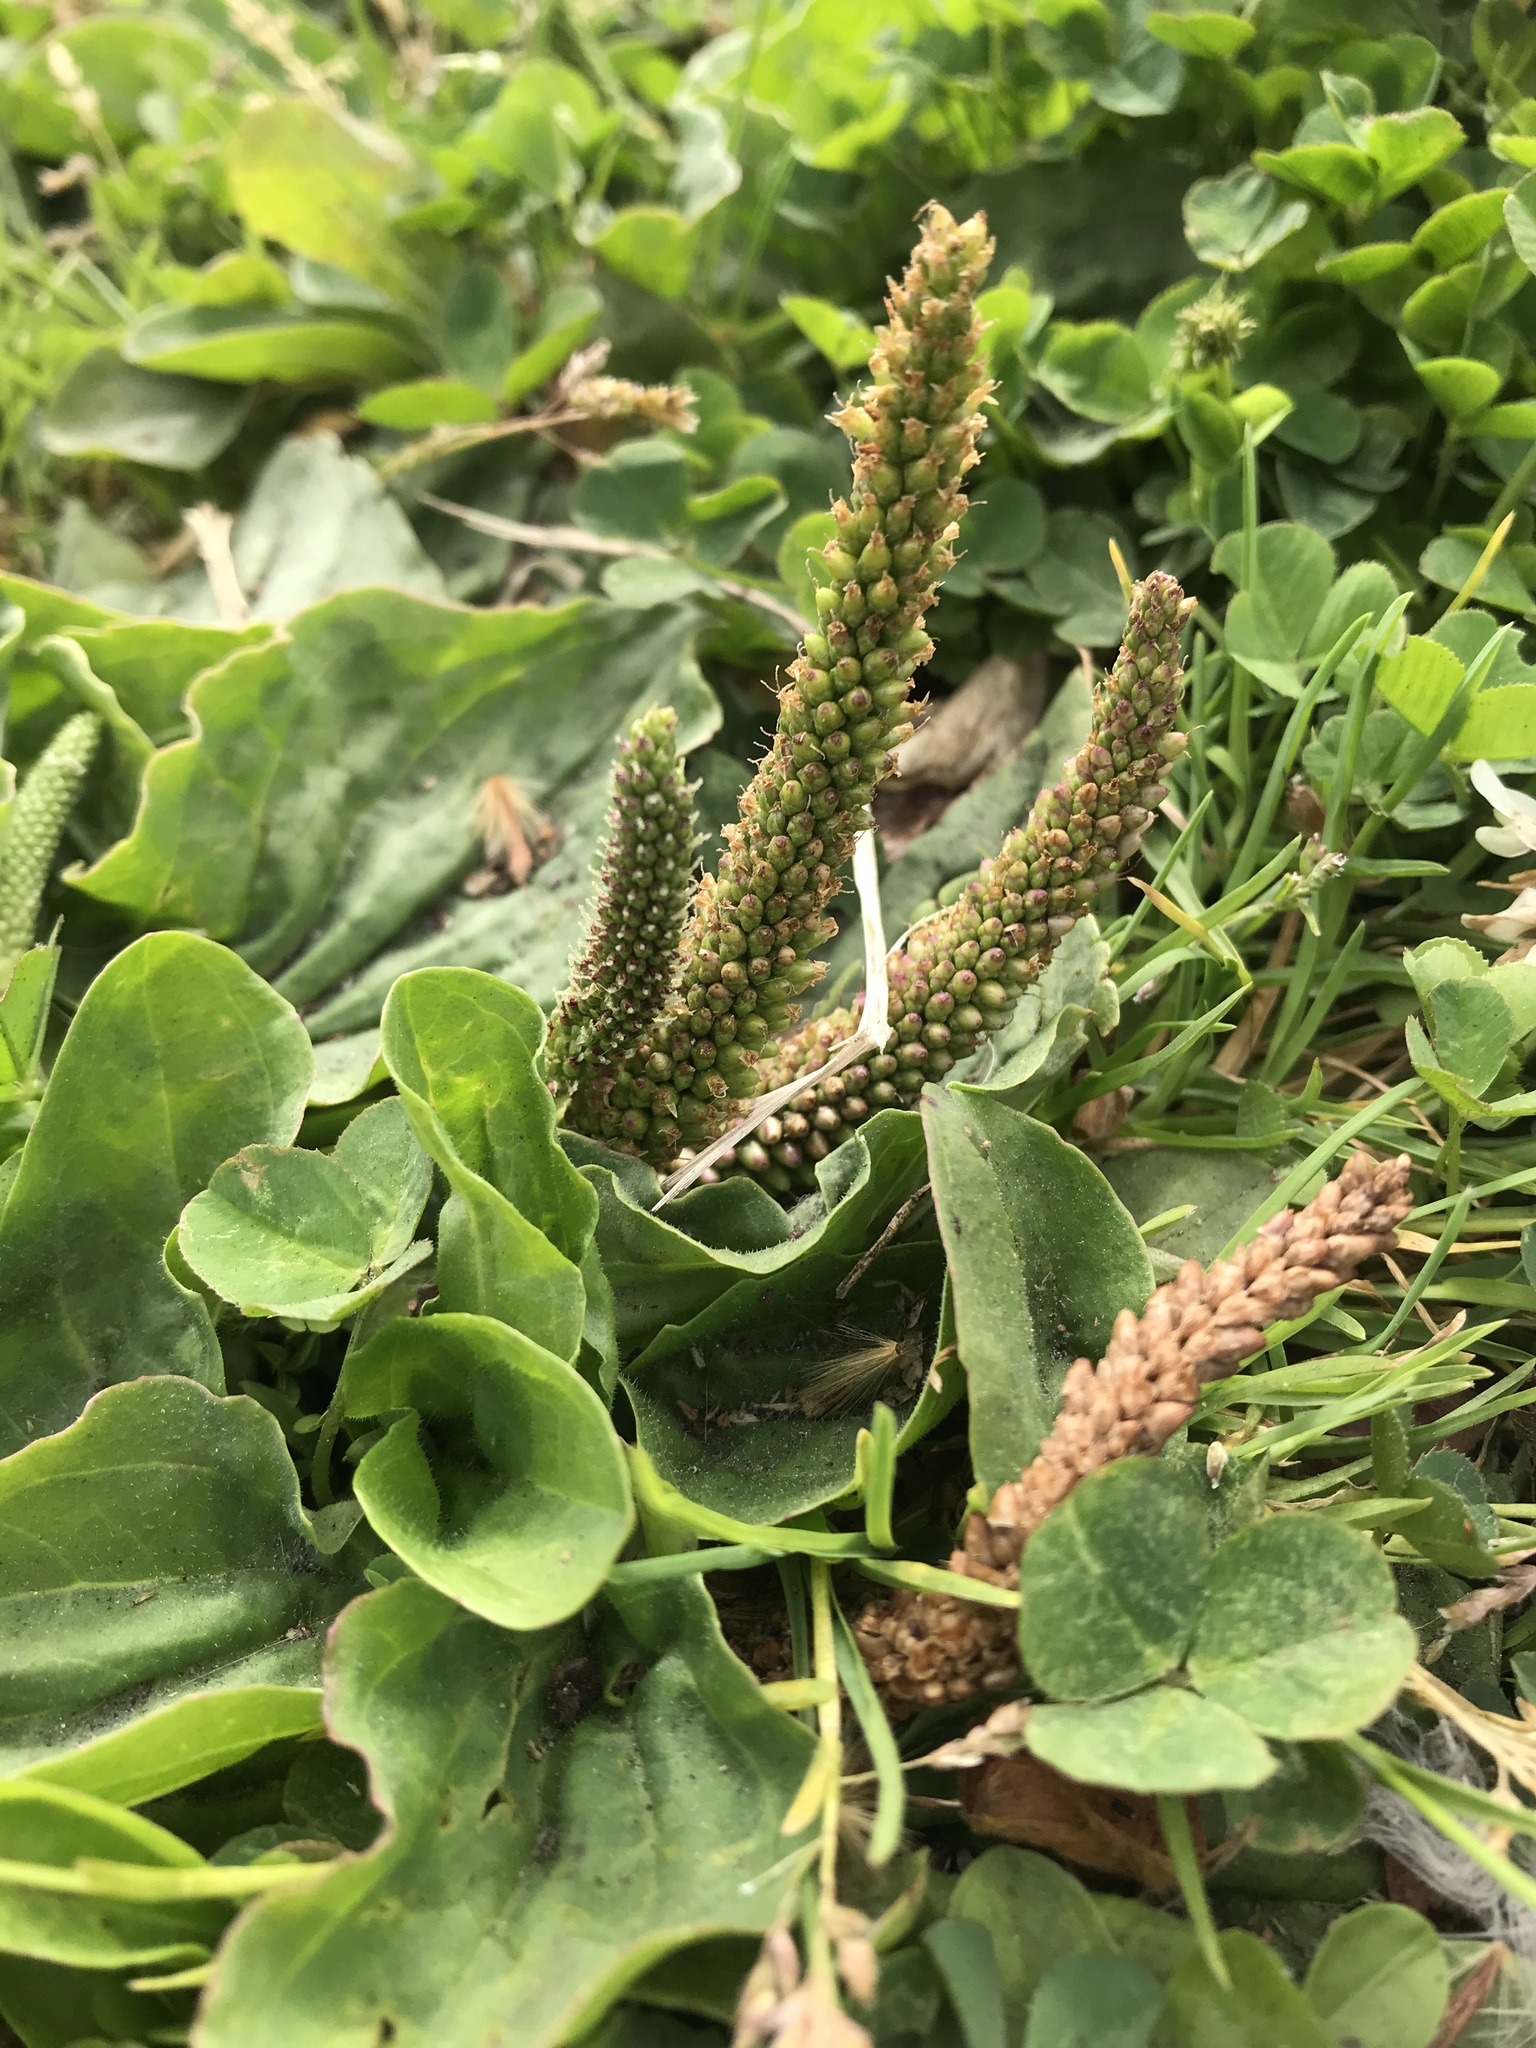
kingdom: Plantae
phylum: Tracheophyta
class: Magnoliopsida
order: Lamiales
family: Plantaginaceae
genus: Plantago
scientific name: Plantago major
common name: Common plantain
